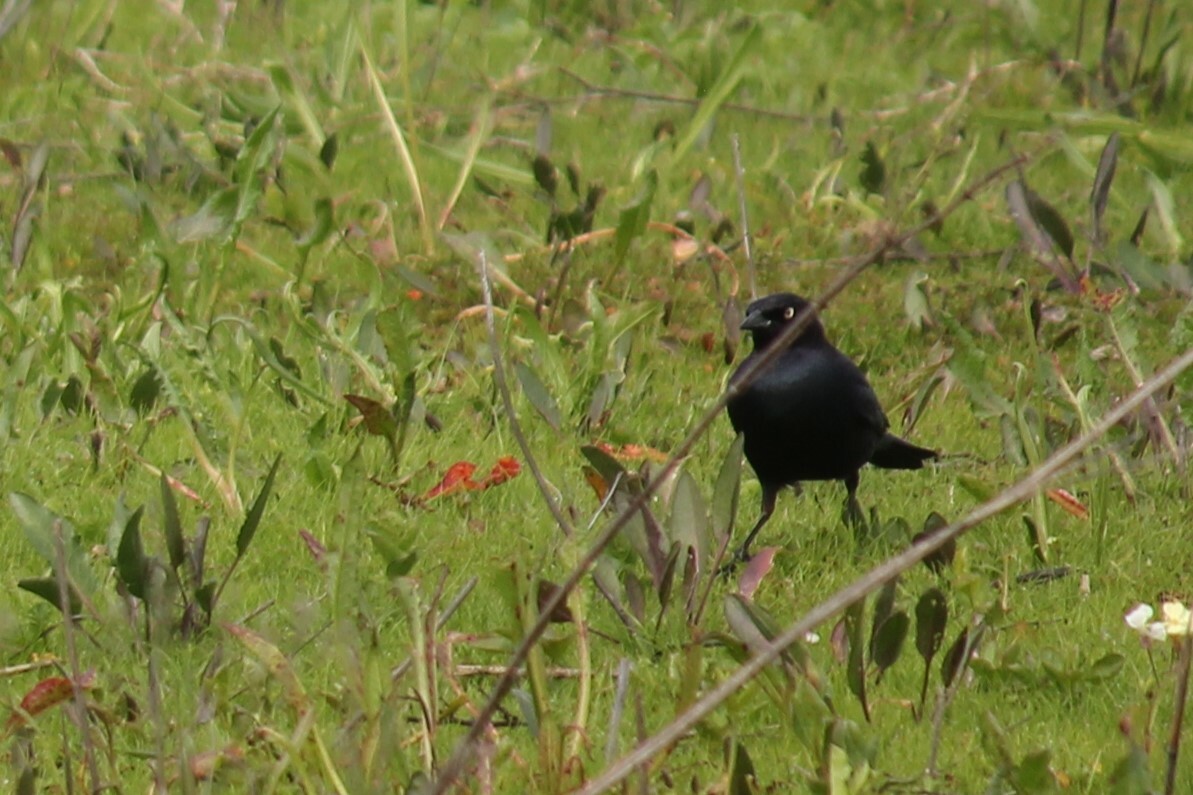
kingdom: Animalia
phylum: Chordata
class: Aves
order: Passeriformes
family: Icteridae
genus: Euphagus
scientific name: Euphagus cyanocephalus
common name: Brewer's blackbird
